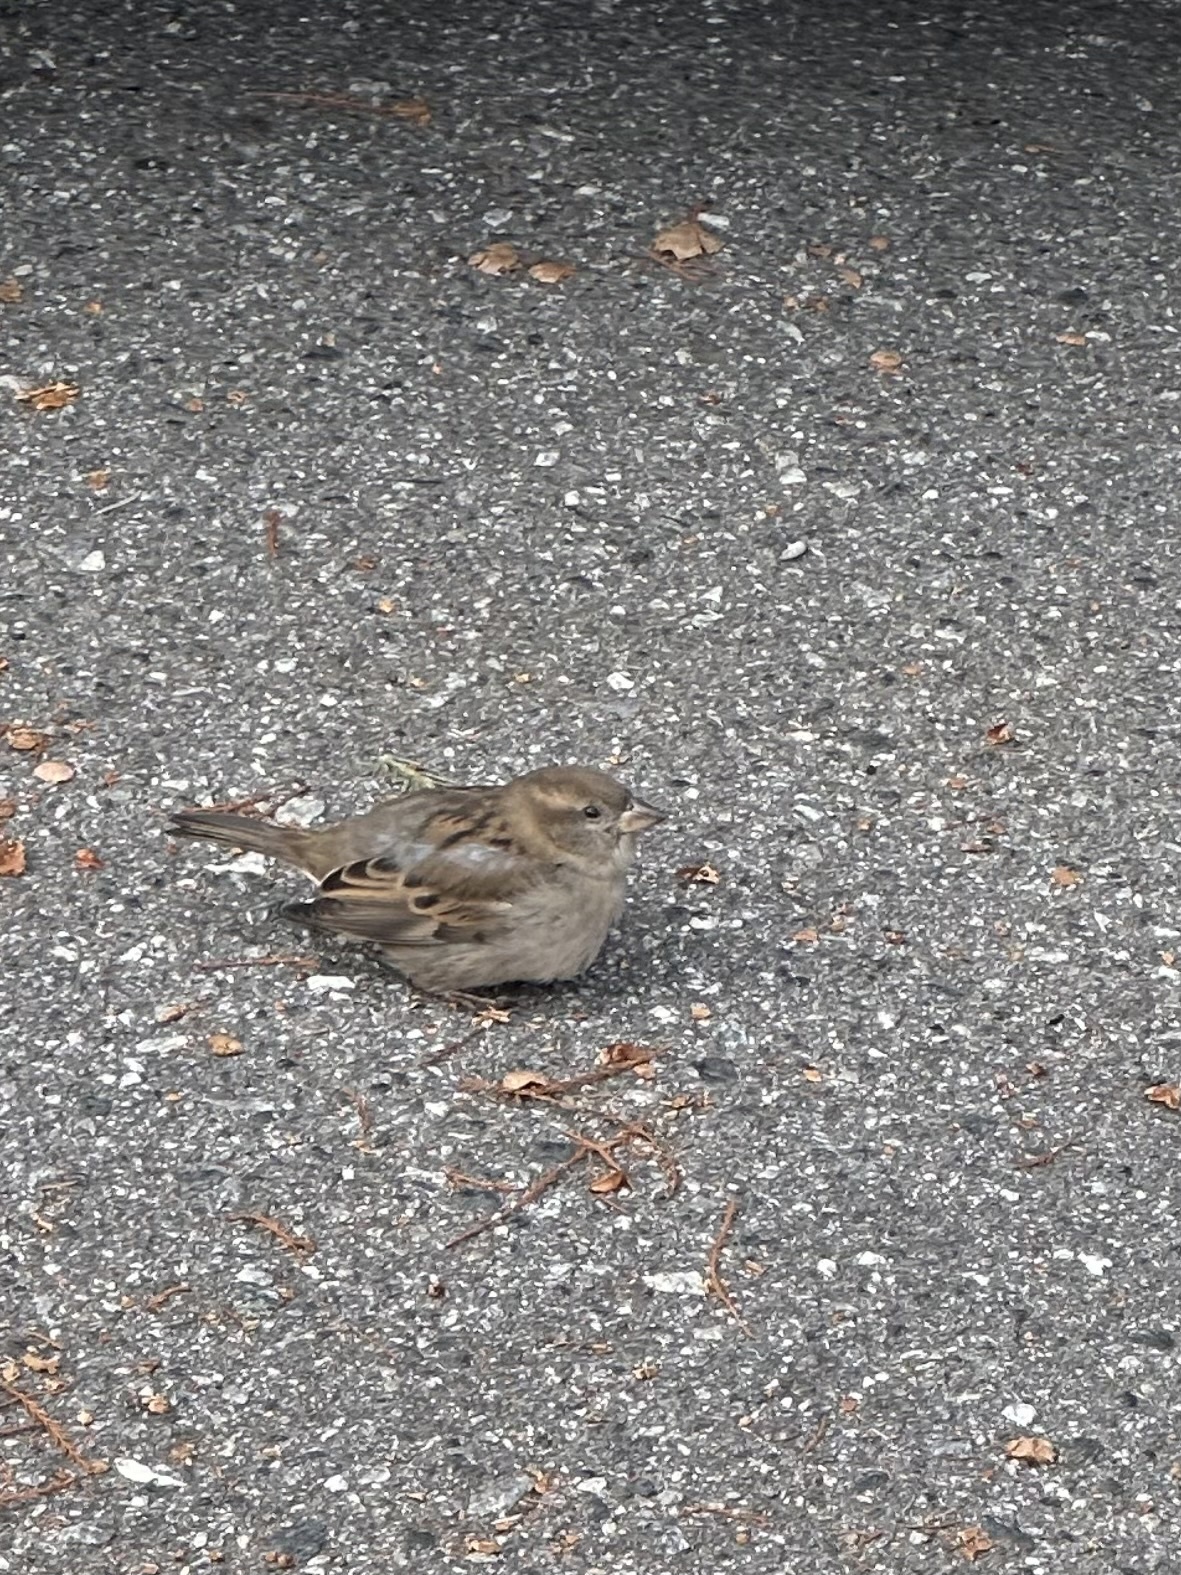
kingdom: Animalia
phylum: Chordata
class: Aves
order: Passeriformes
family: Passeridae
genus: Passer
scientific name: Passer domesticus
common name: House sparrow
